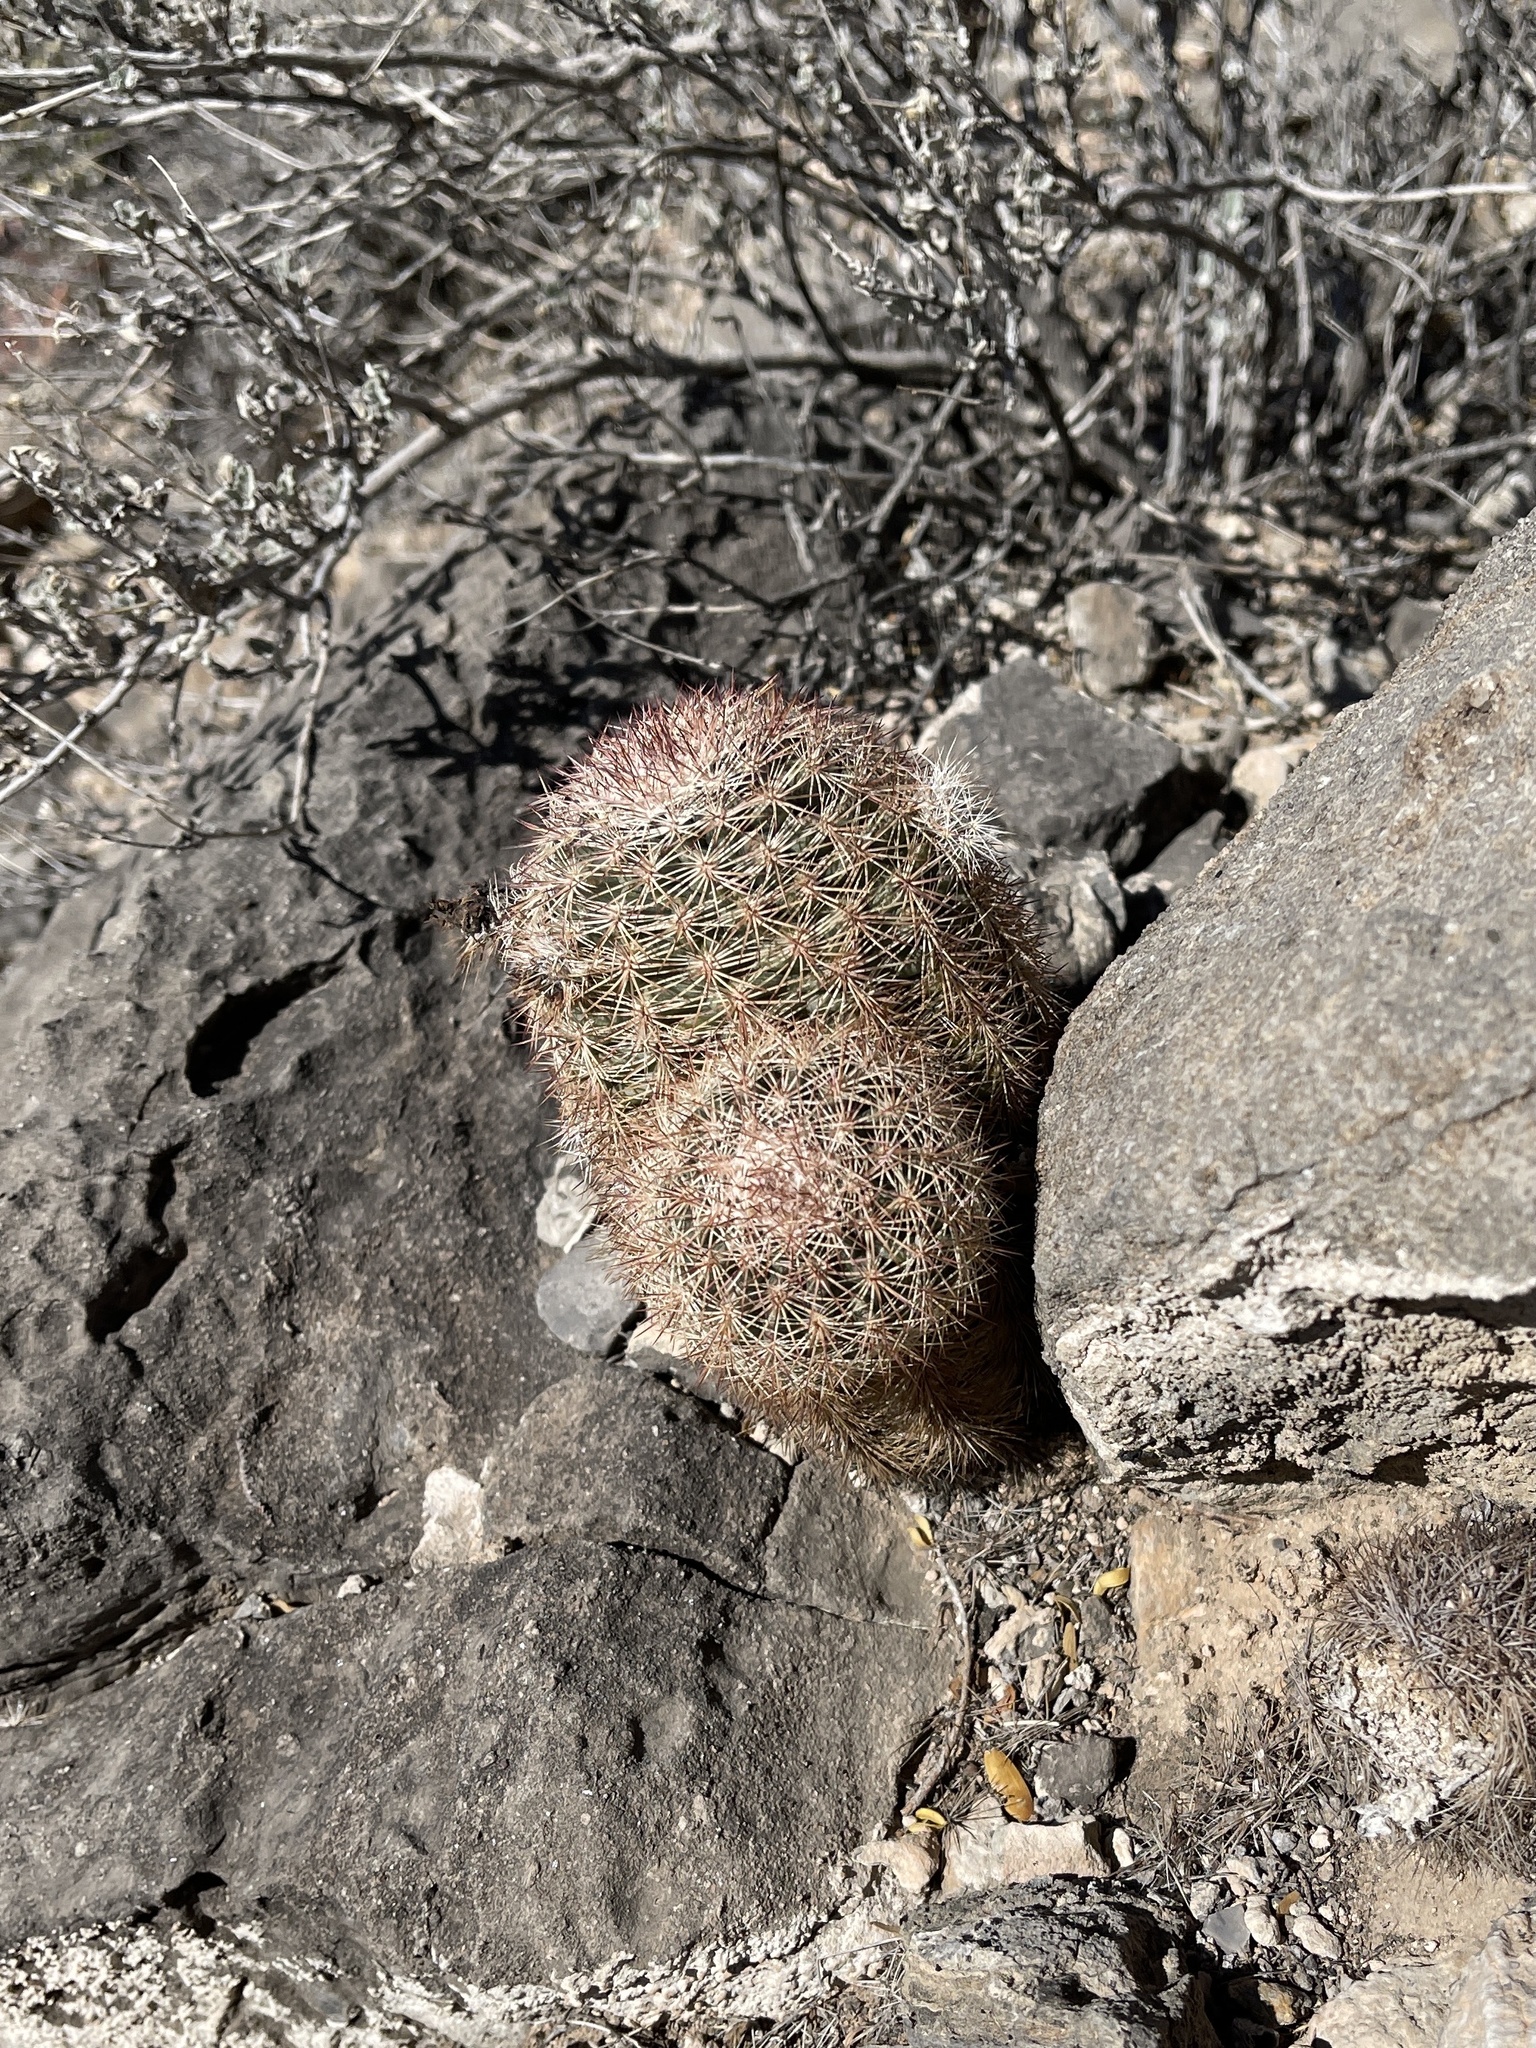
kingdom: Plantae
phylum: Tracheophyta
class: Magnoliopsida
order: Caryophyllales
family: Cactaceae
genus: Echinocereus
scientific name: Echinocereus dasyacanthus
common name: Spiny hedgehog cactus
